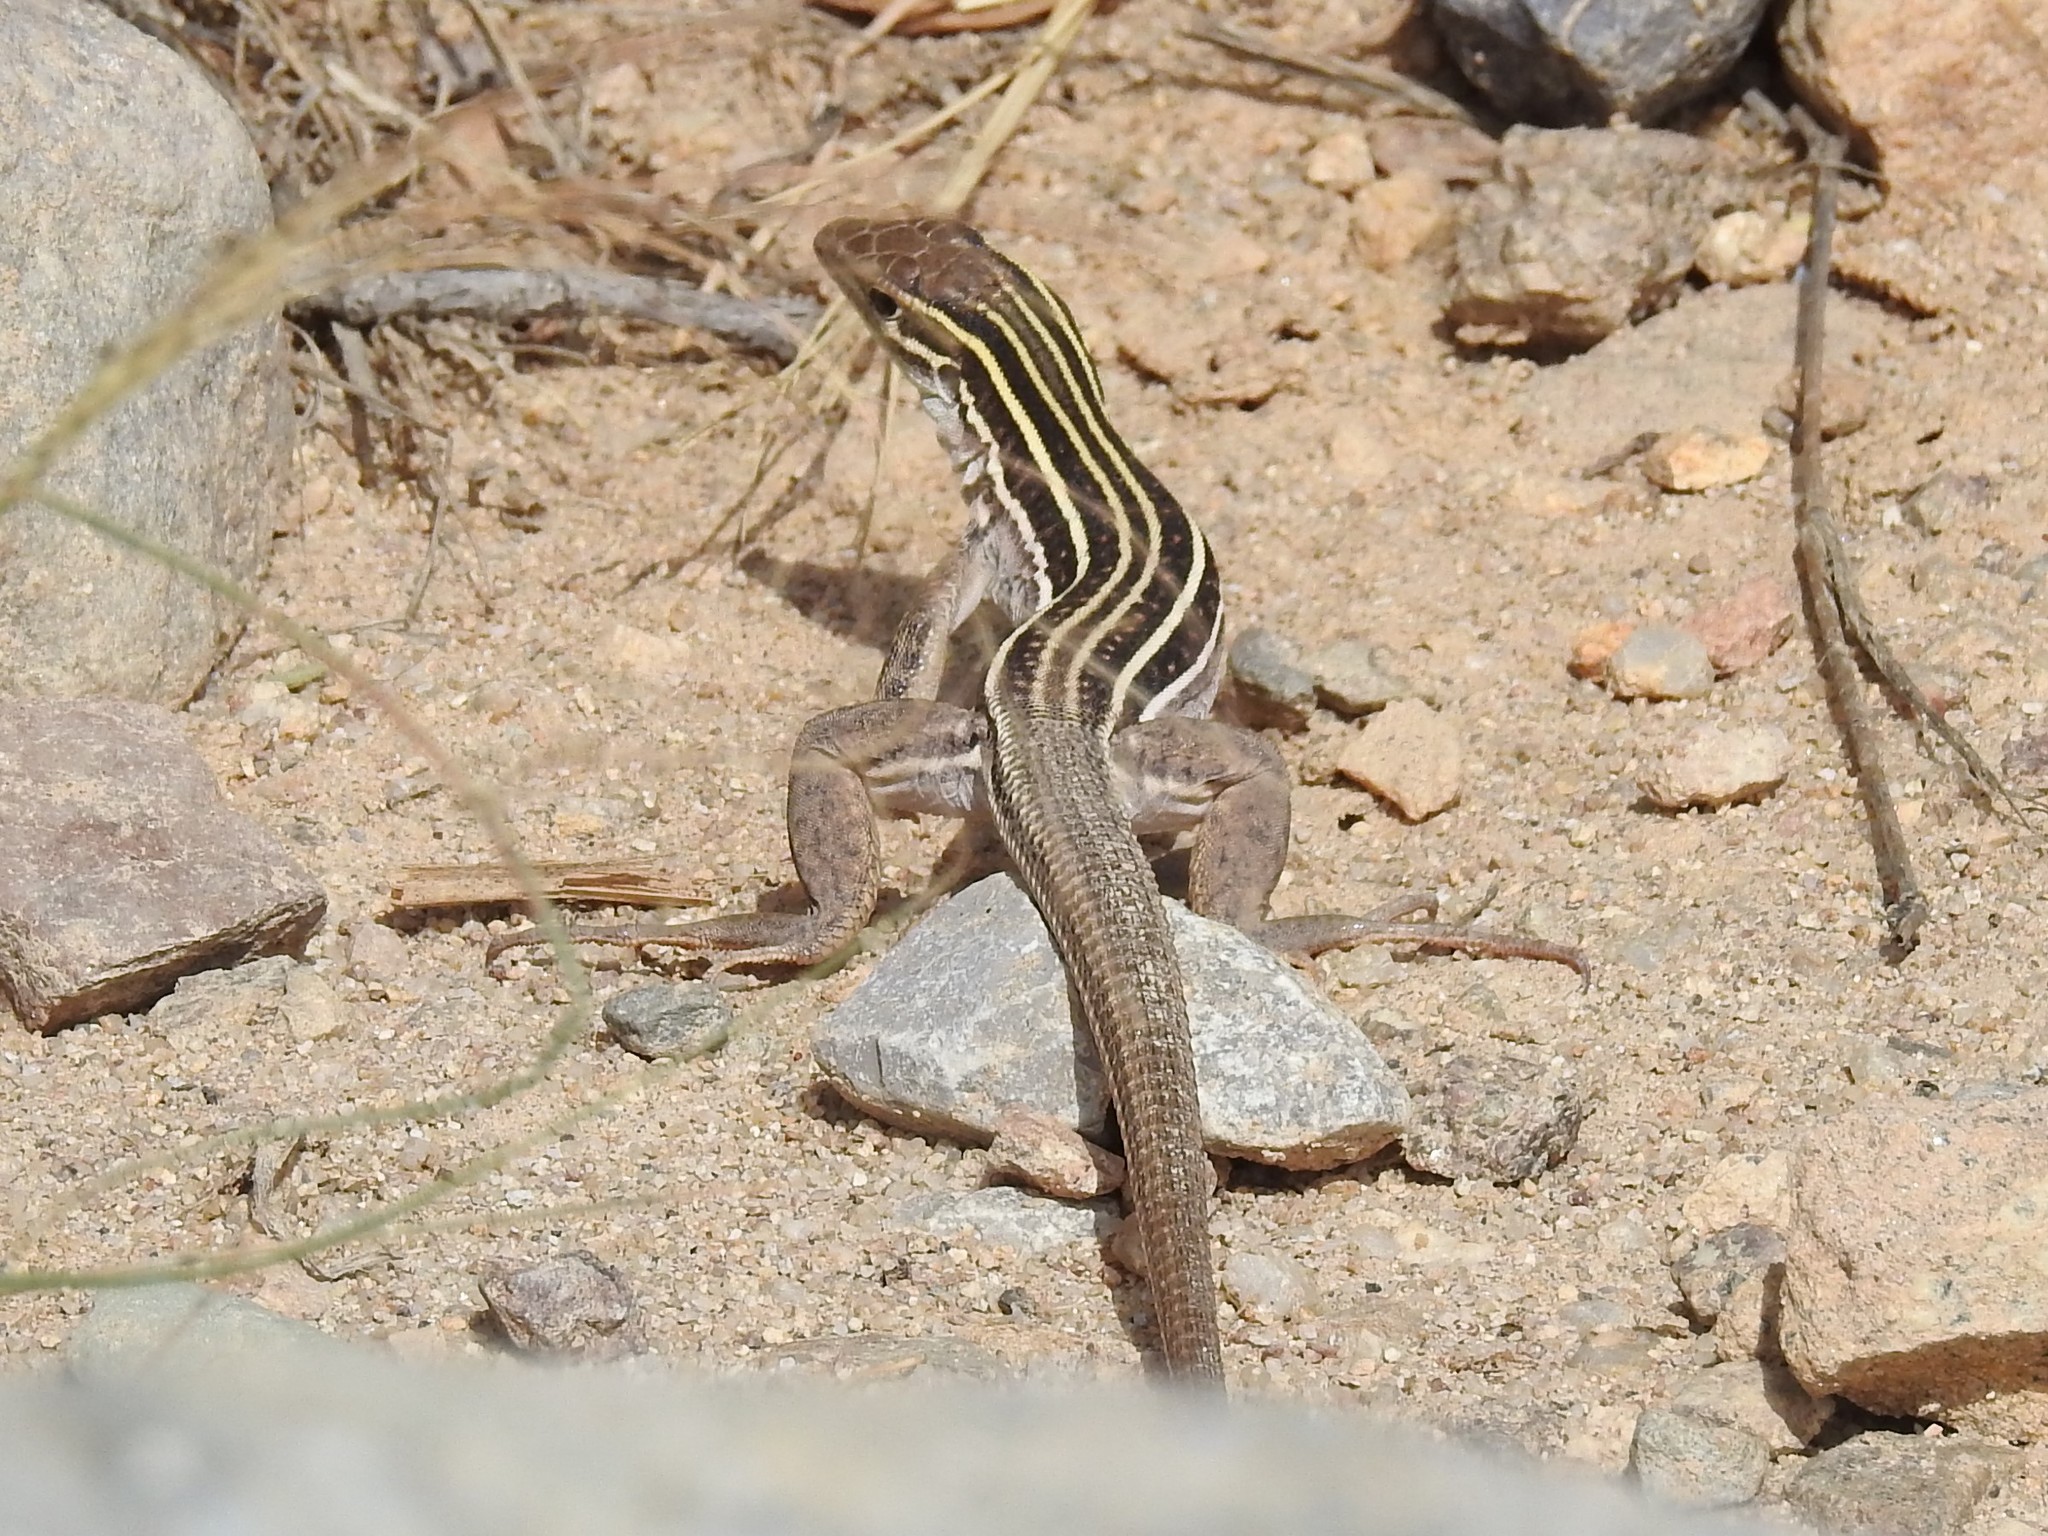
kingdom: Animalia
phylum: Chordata
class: Squamata
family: Teiidae
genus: Aspidoscelis
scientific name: Aspidoscelis sonorae
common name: Sonoran spotted whiptail
